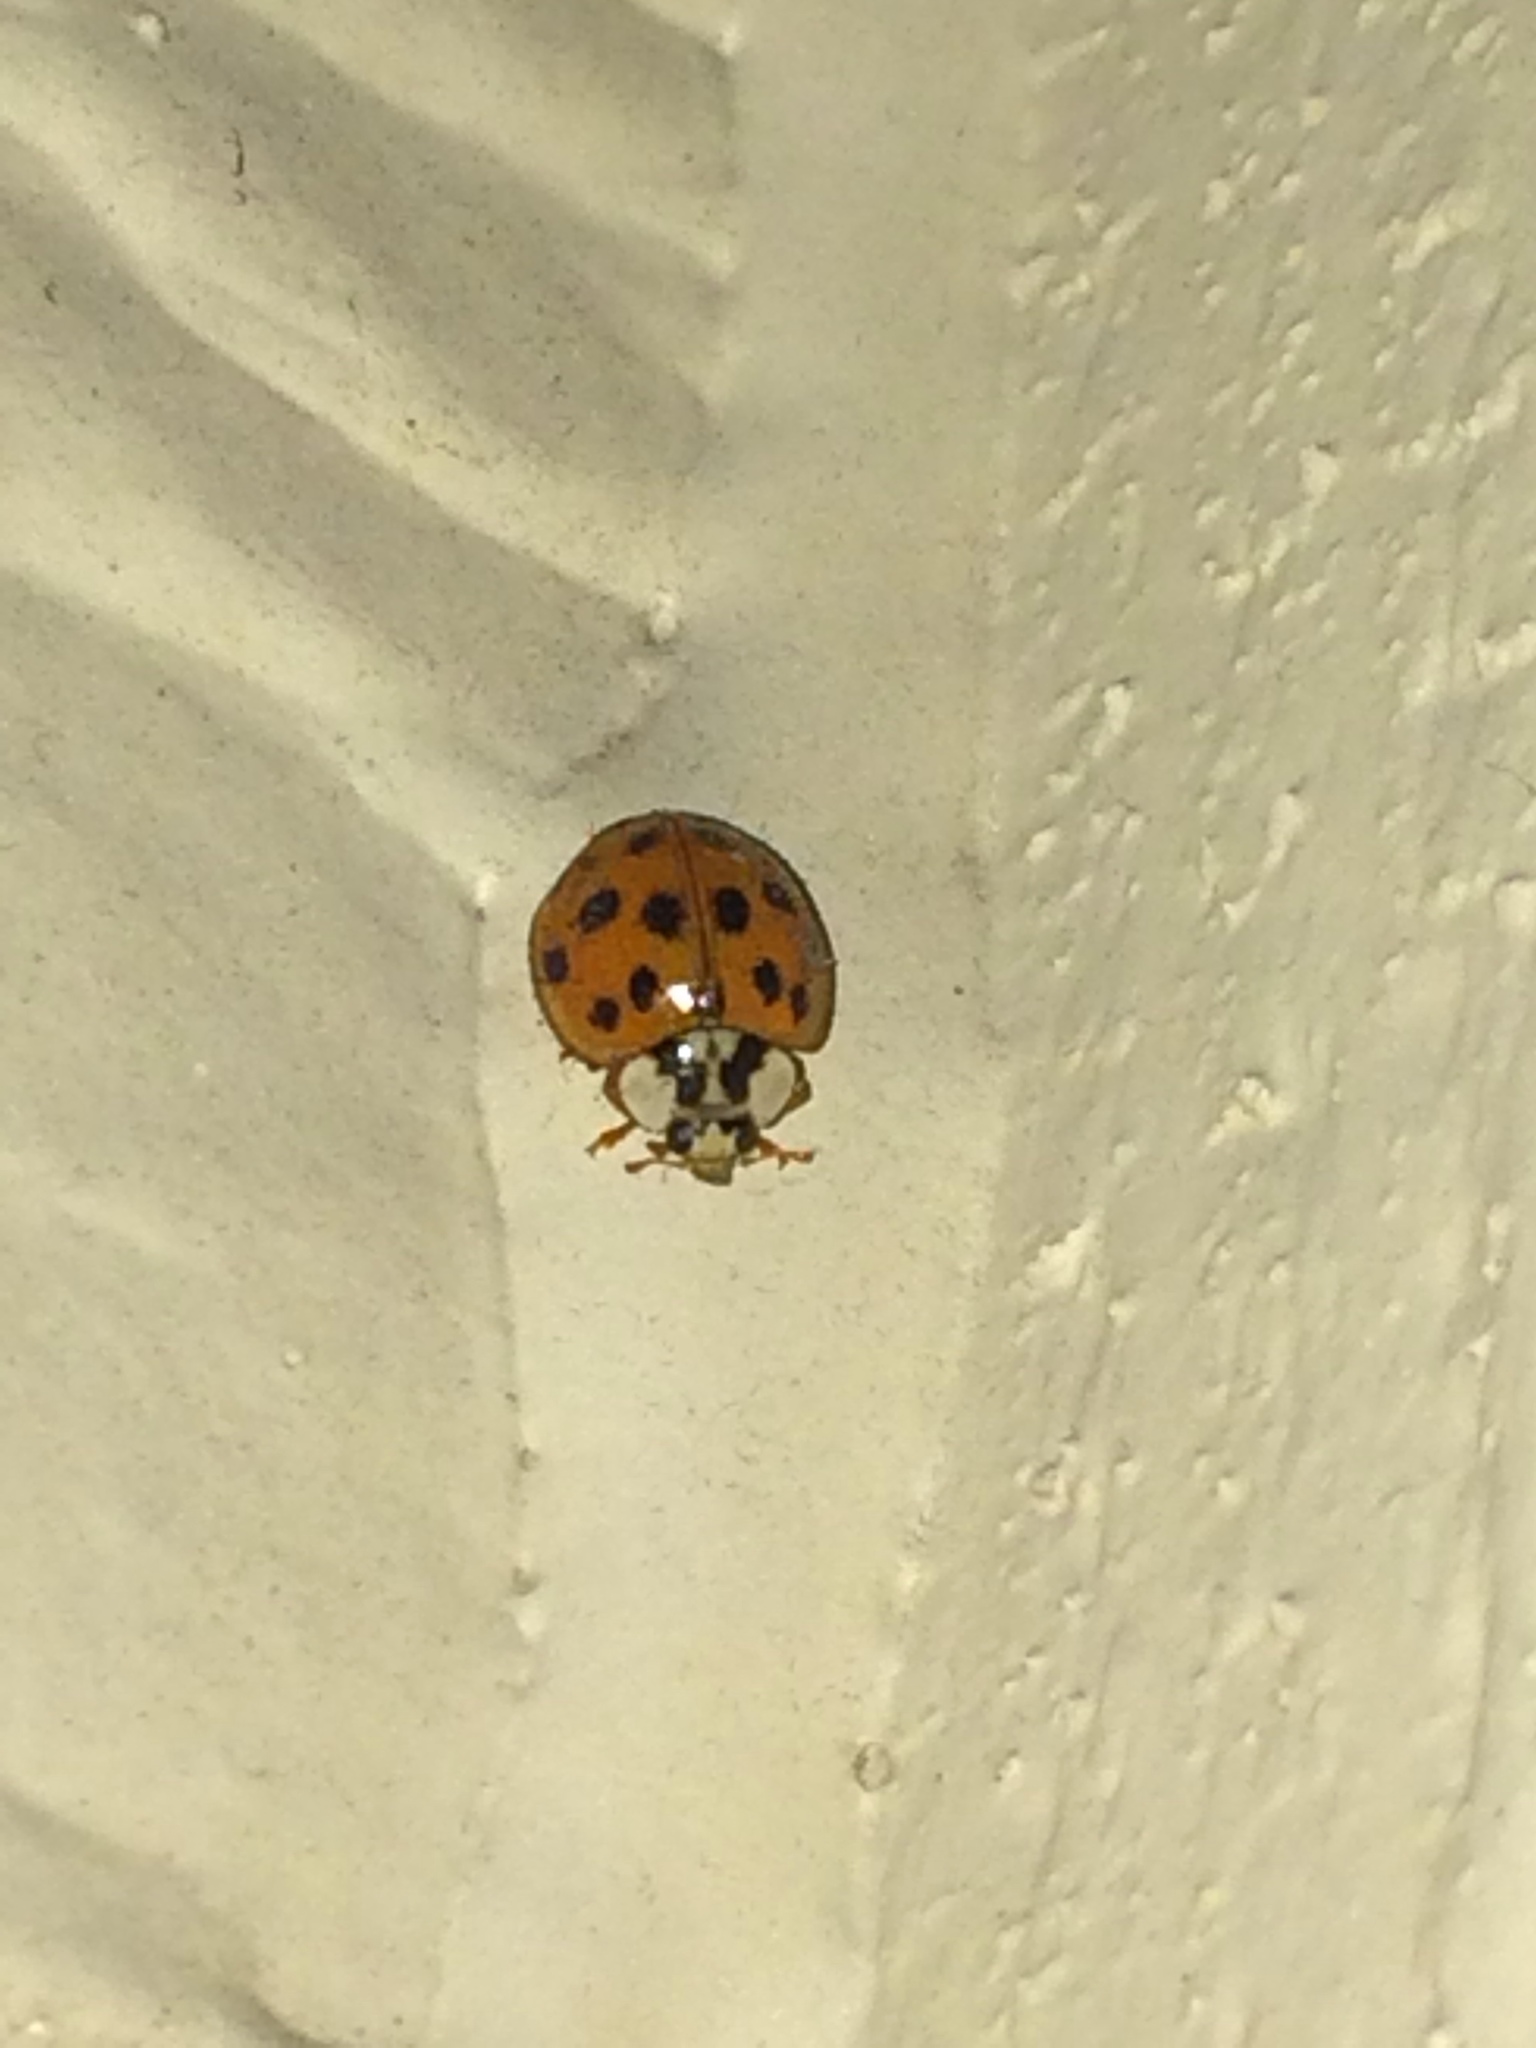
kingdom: Animalia
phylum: Arthropoda
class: Insecta
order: Coleoptera
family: Coccinellidae
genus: Harmonia
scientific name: Harmonia axyridis
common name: Harlequin ladybird
